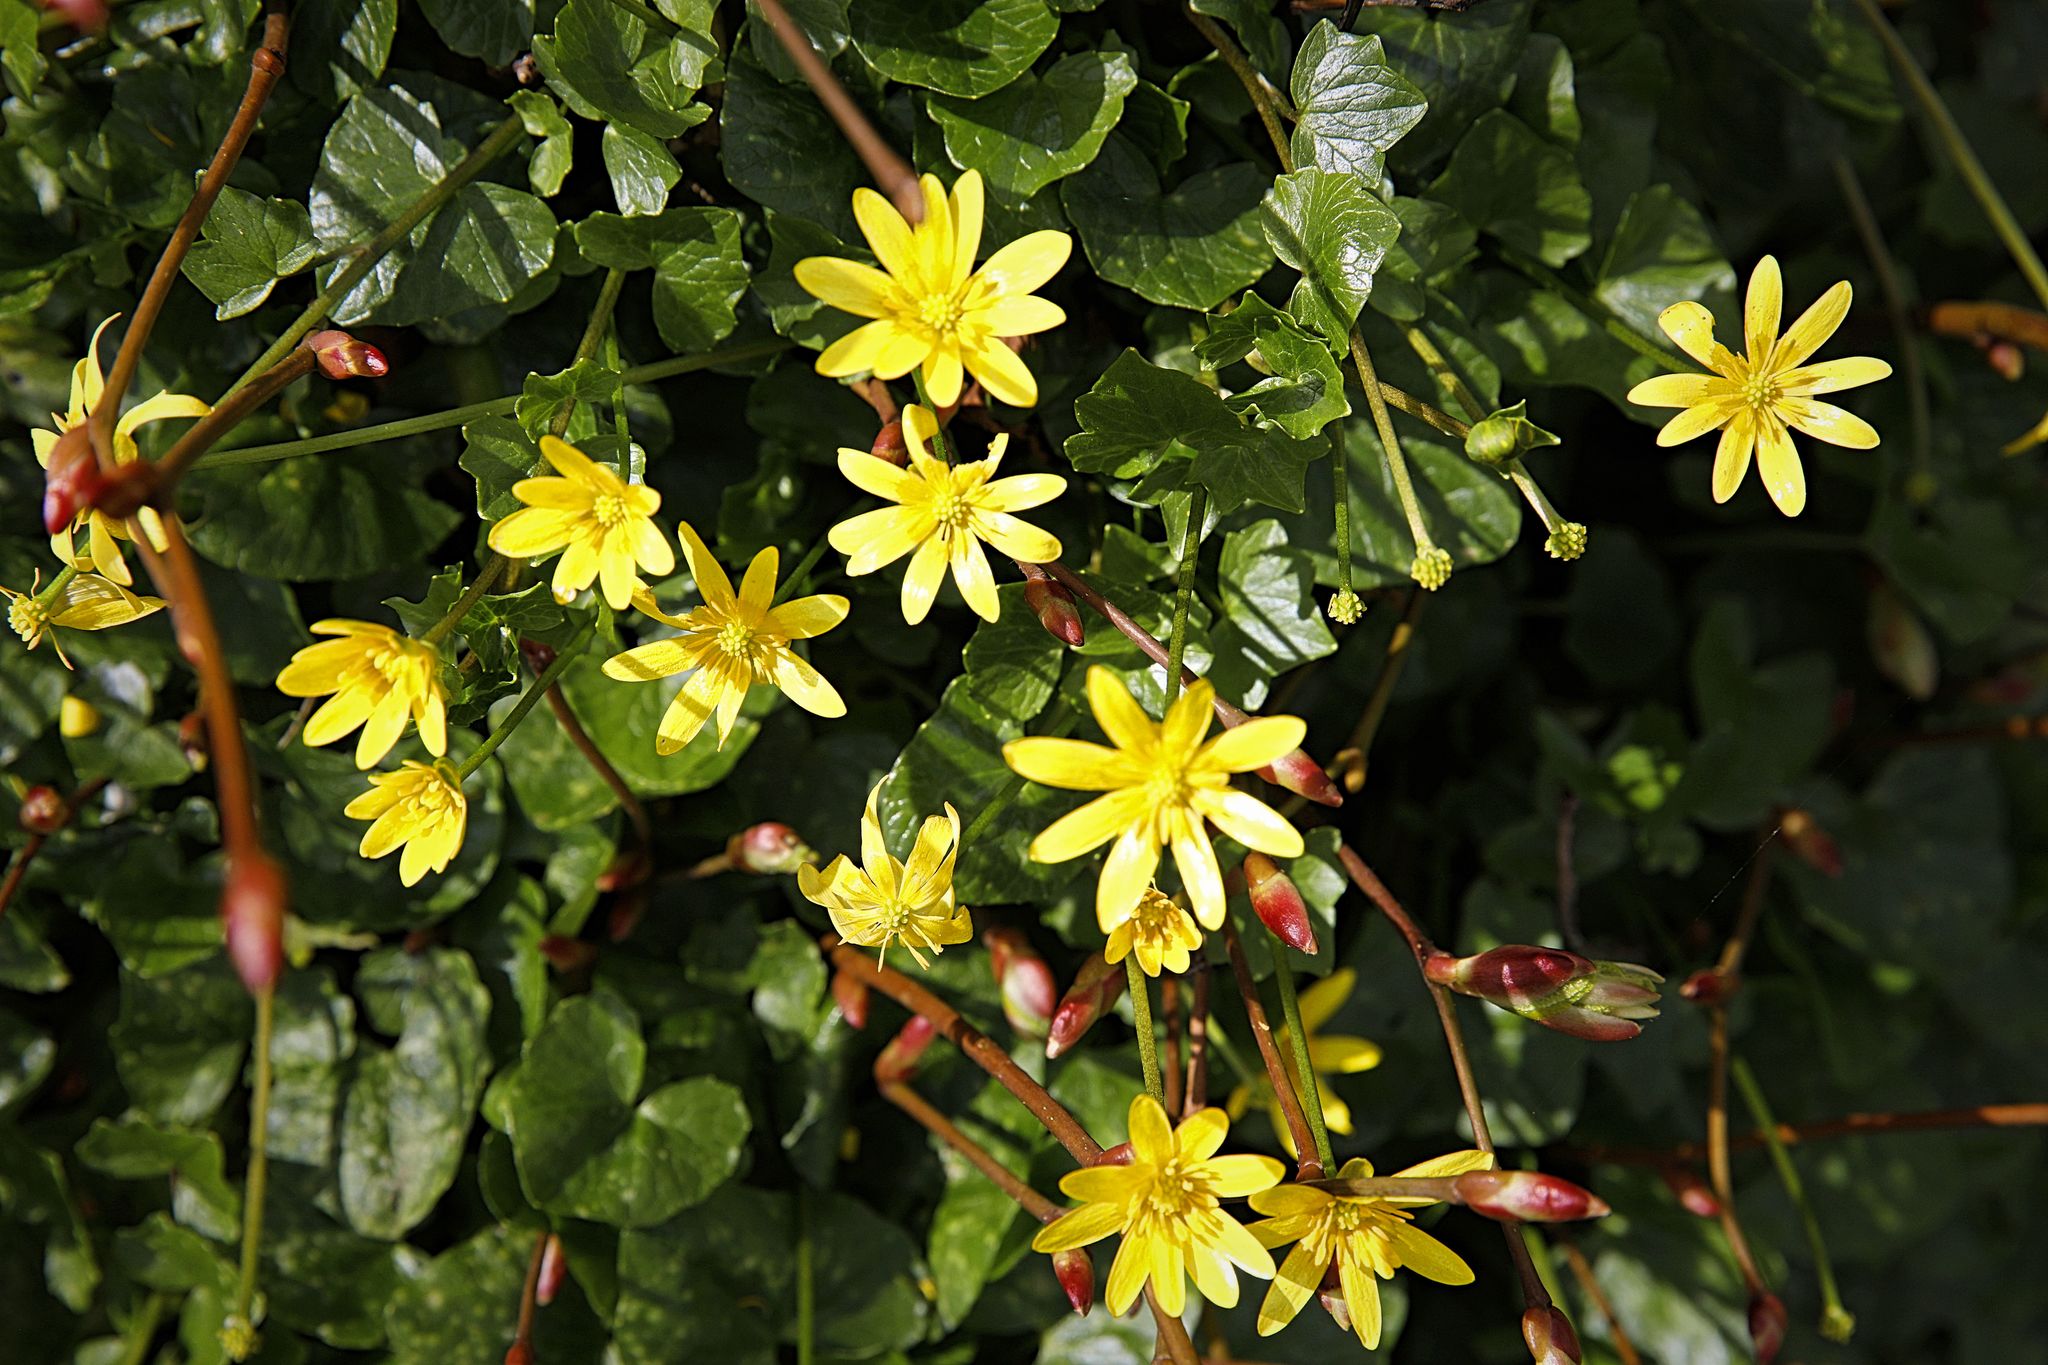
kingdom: Plantae
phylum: Tracheophyta
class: Magnoliopsida
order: Ranunculales
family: Ranunculaceae
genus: Ficaria
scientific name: Ficaria verna
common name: Lesser celandine
